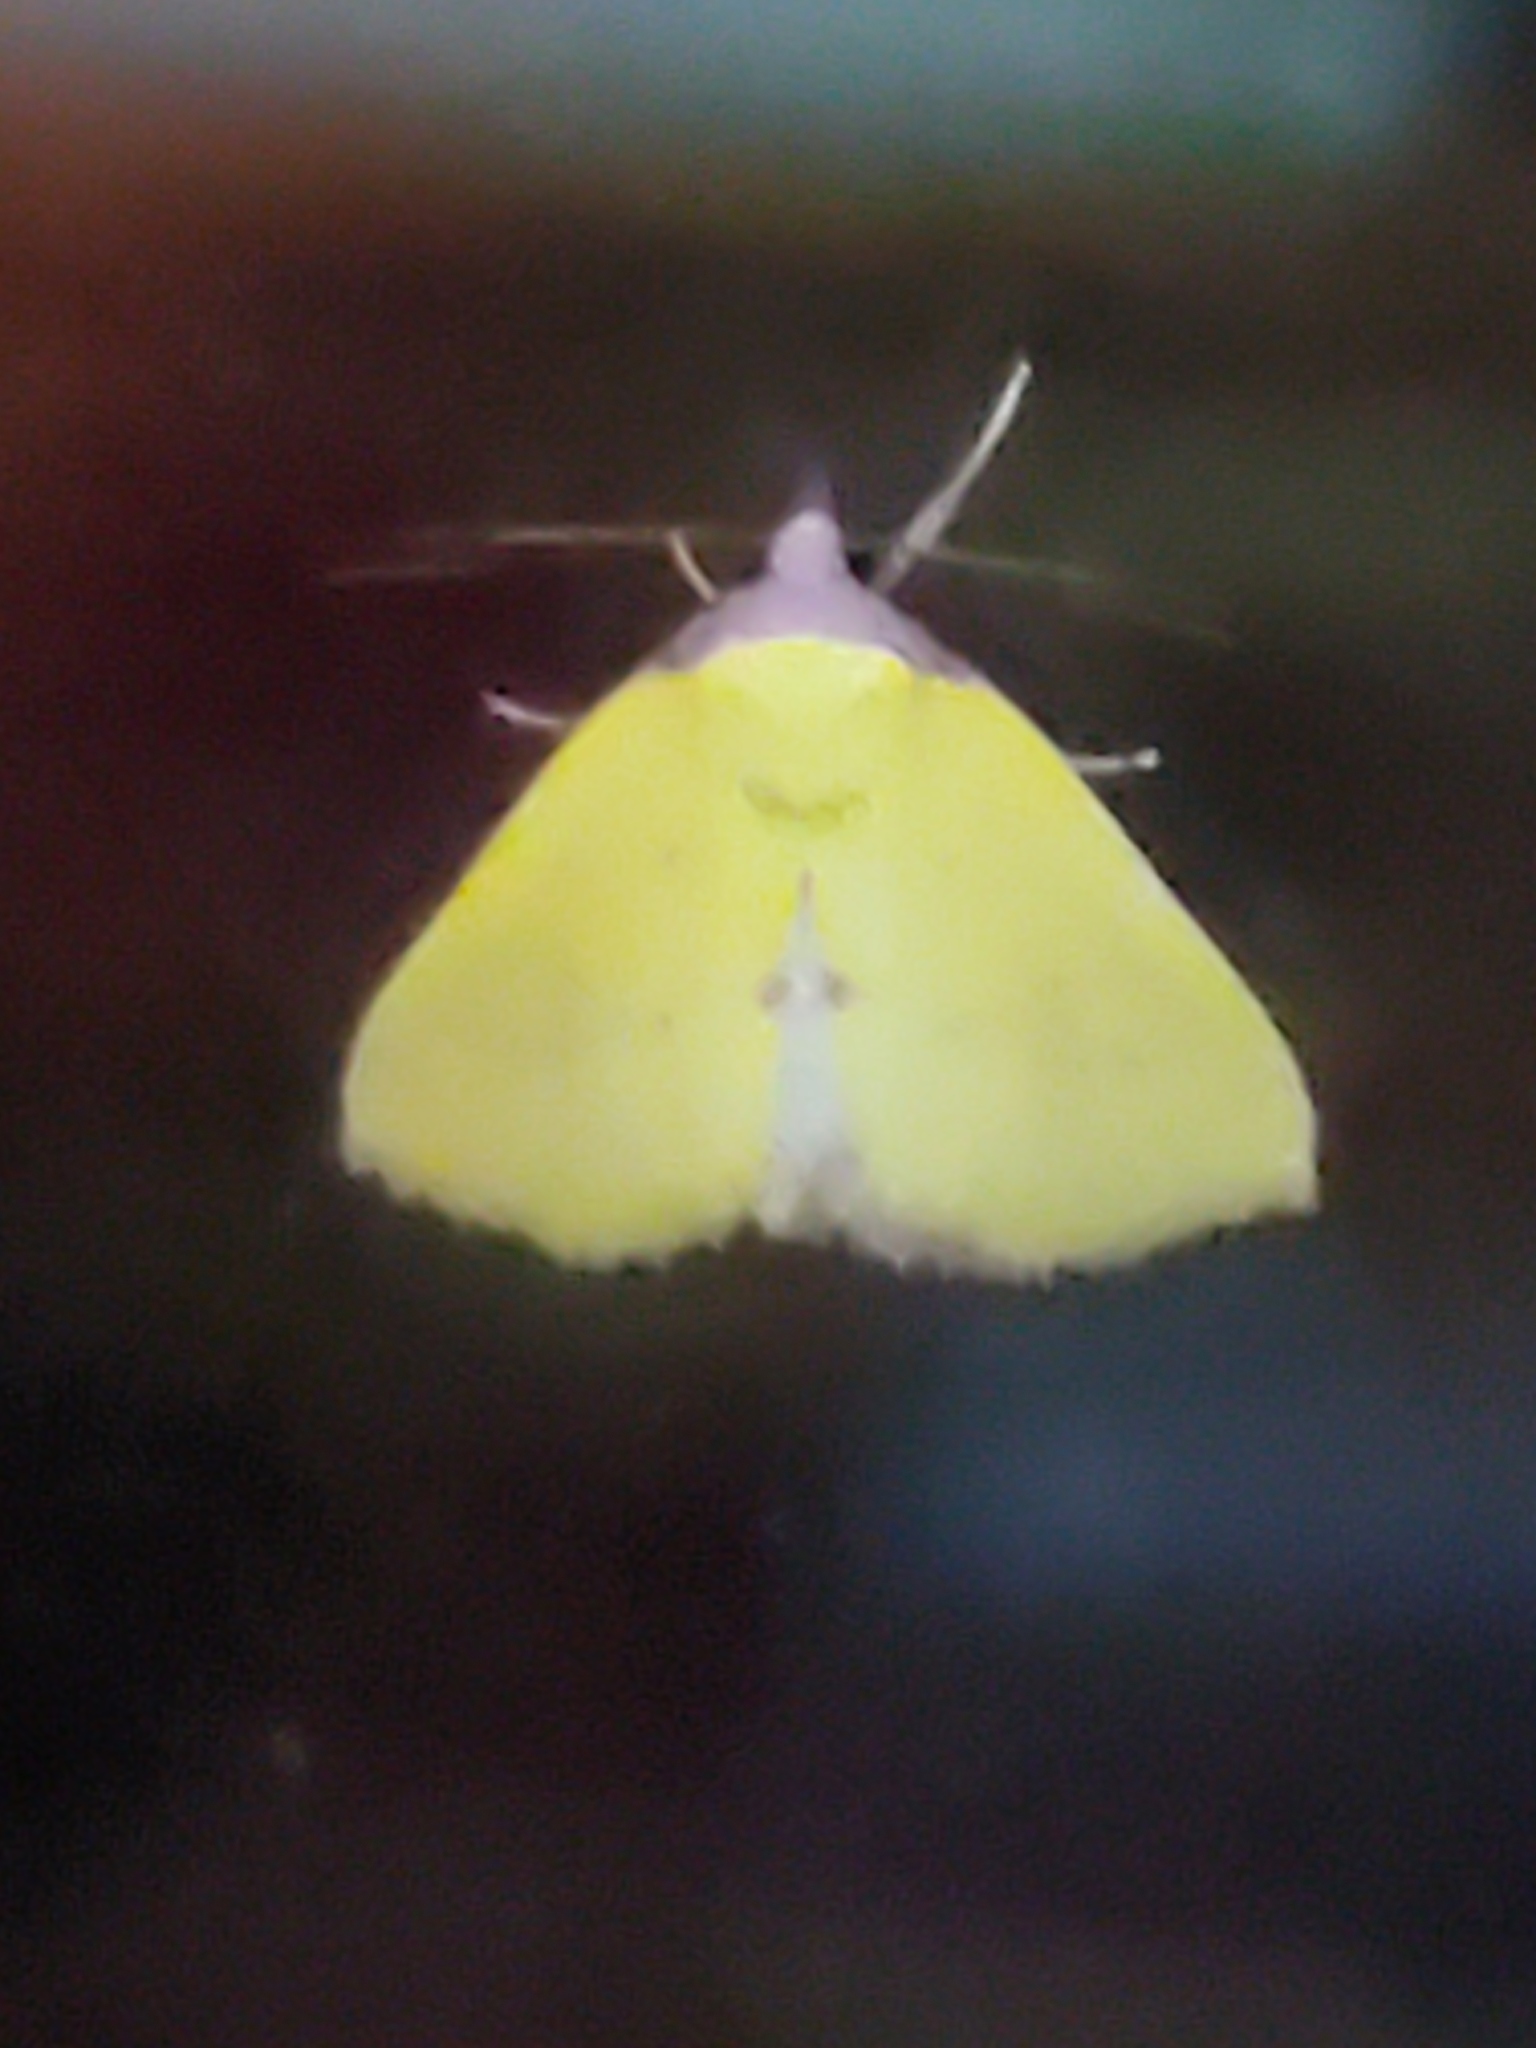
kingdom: Animalia
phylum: Arthropoda
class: Insecta
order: Lepidoptera
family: Erebidae
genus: Phytometra
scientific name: Phytometra orgiae
